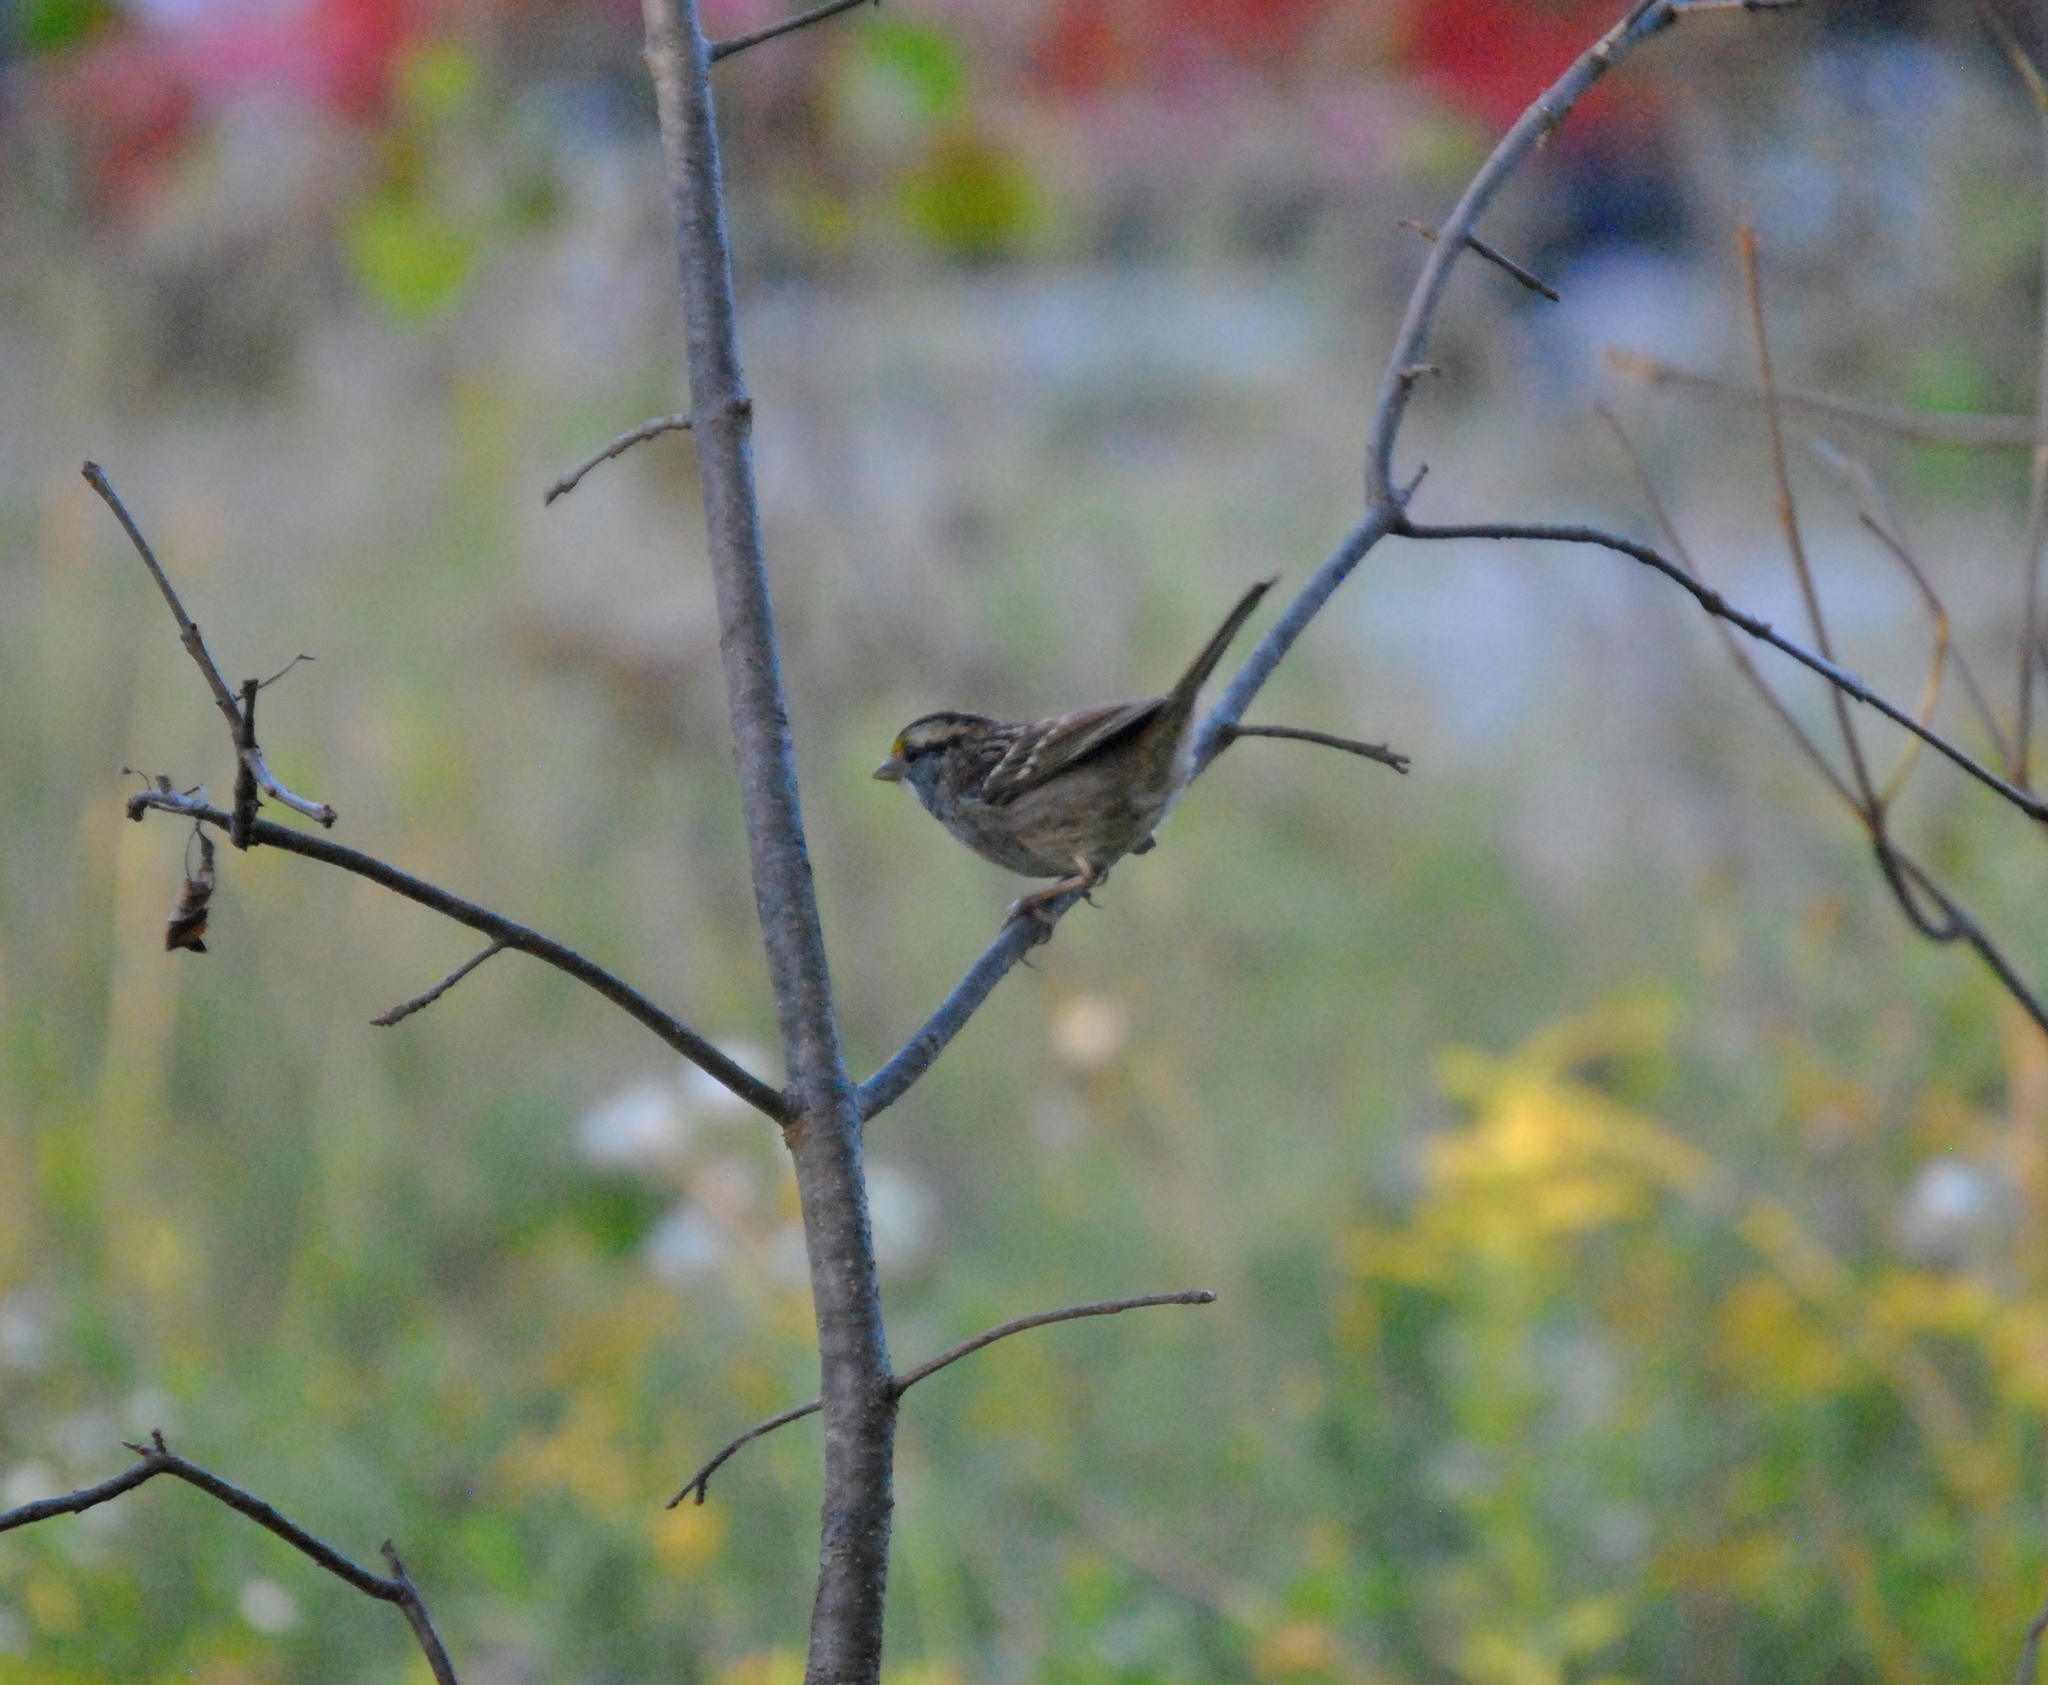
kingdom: Animalia
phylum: Chordata
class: Aves
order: Passeriformes
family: Passerellidae
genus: Zonotrichia
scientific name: Zonotrichia albicollis
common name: White-throated sparrow
